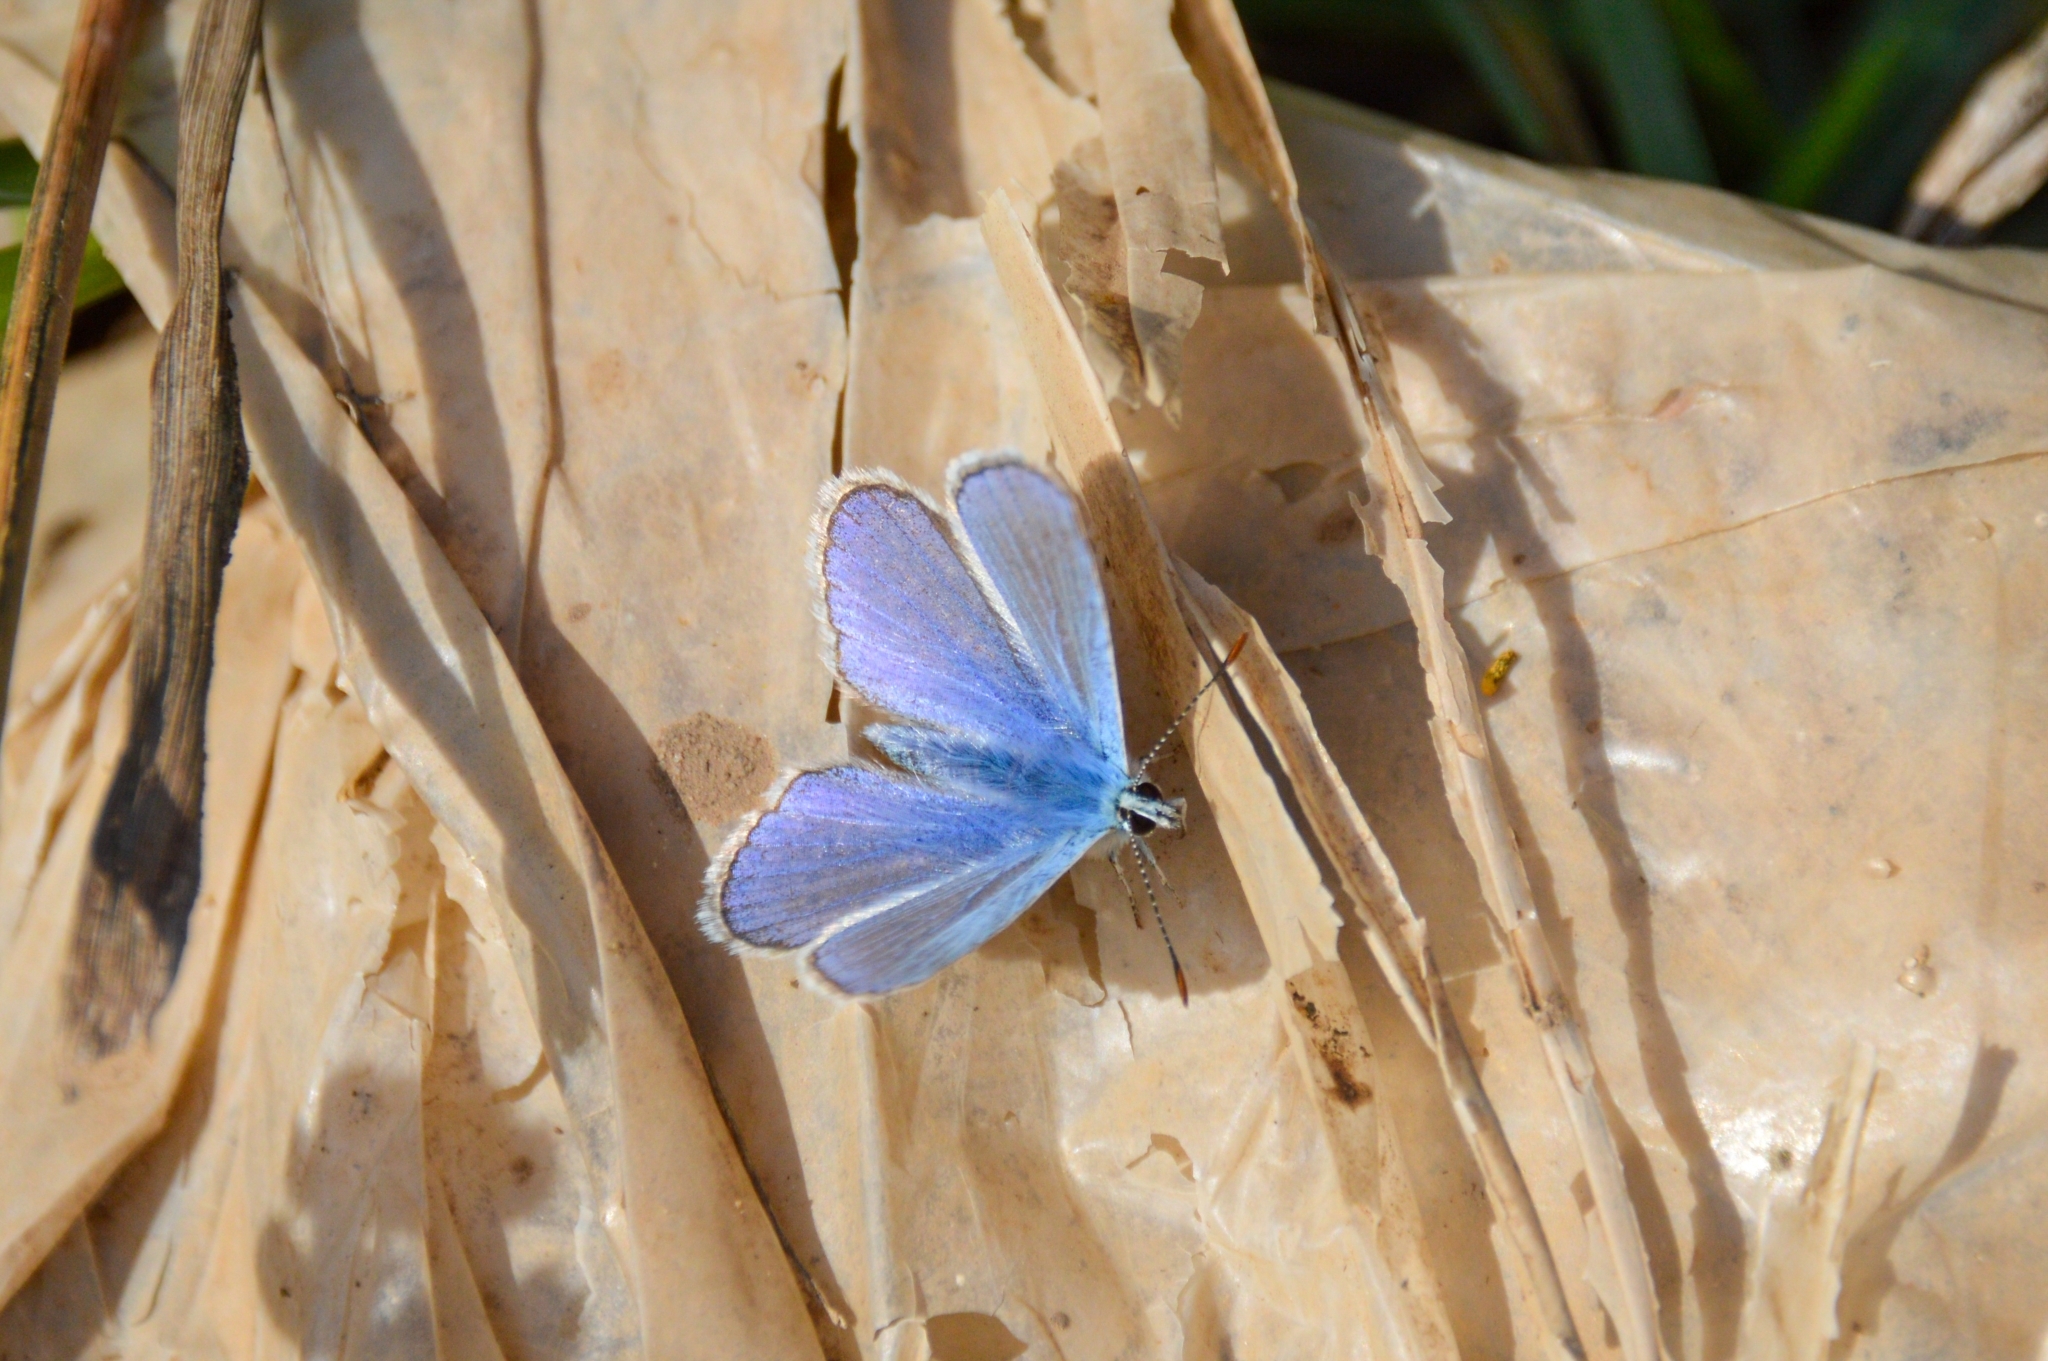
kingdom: Animalia
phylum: Arthropoda
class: Insecta
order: Lepidoptera
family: Lycaenidae
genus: Polyommatus
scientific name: Polyommatus icarus
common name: Common blue
